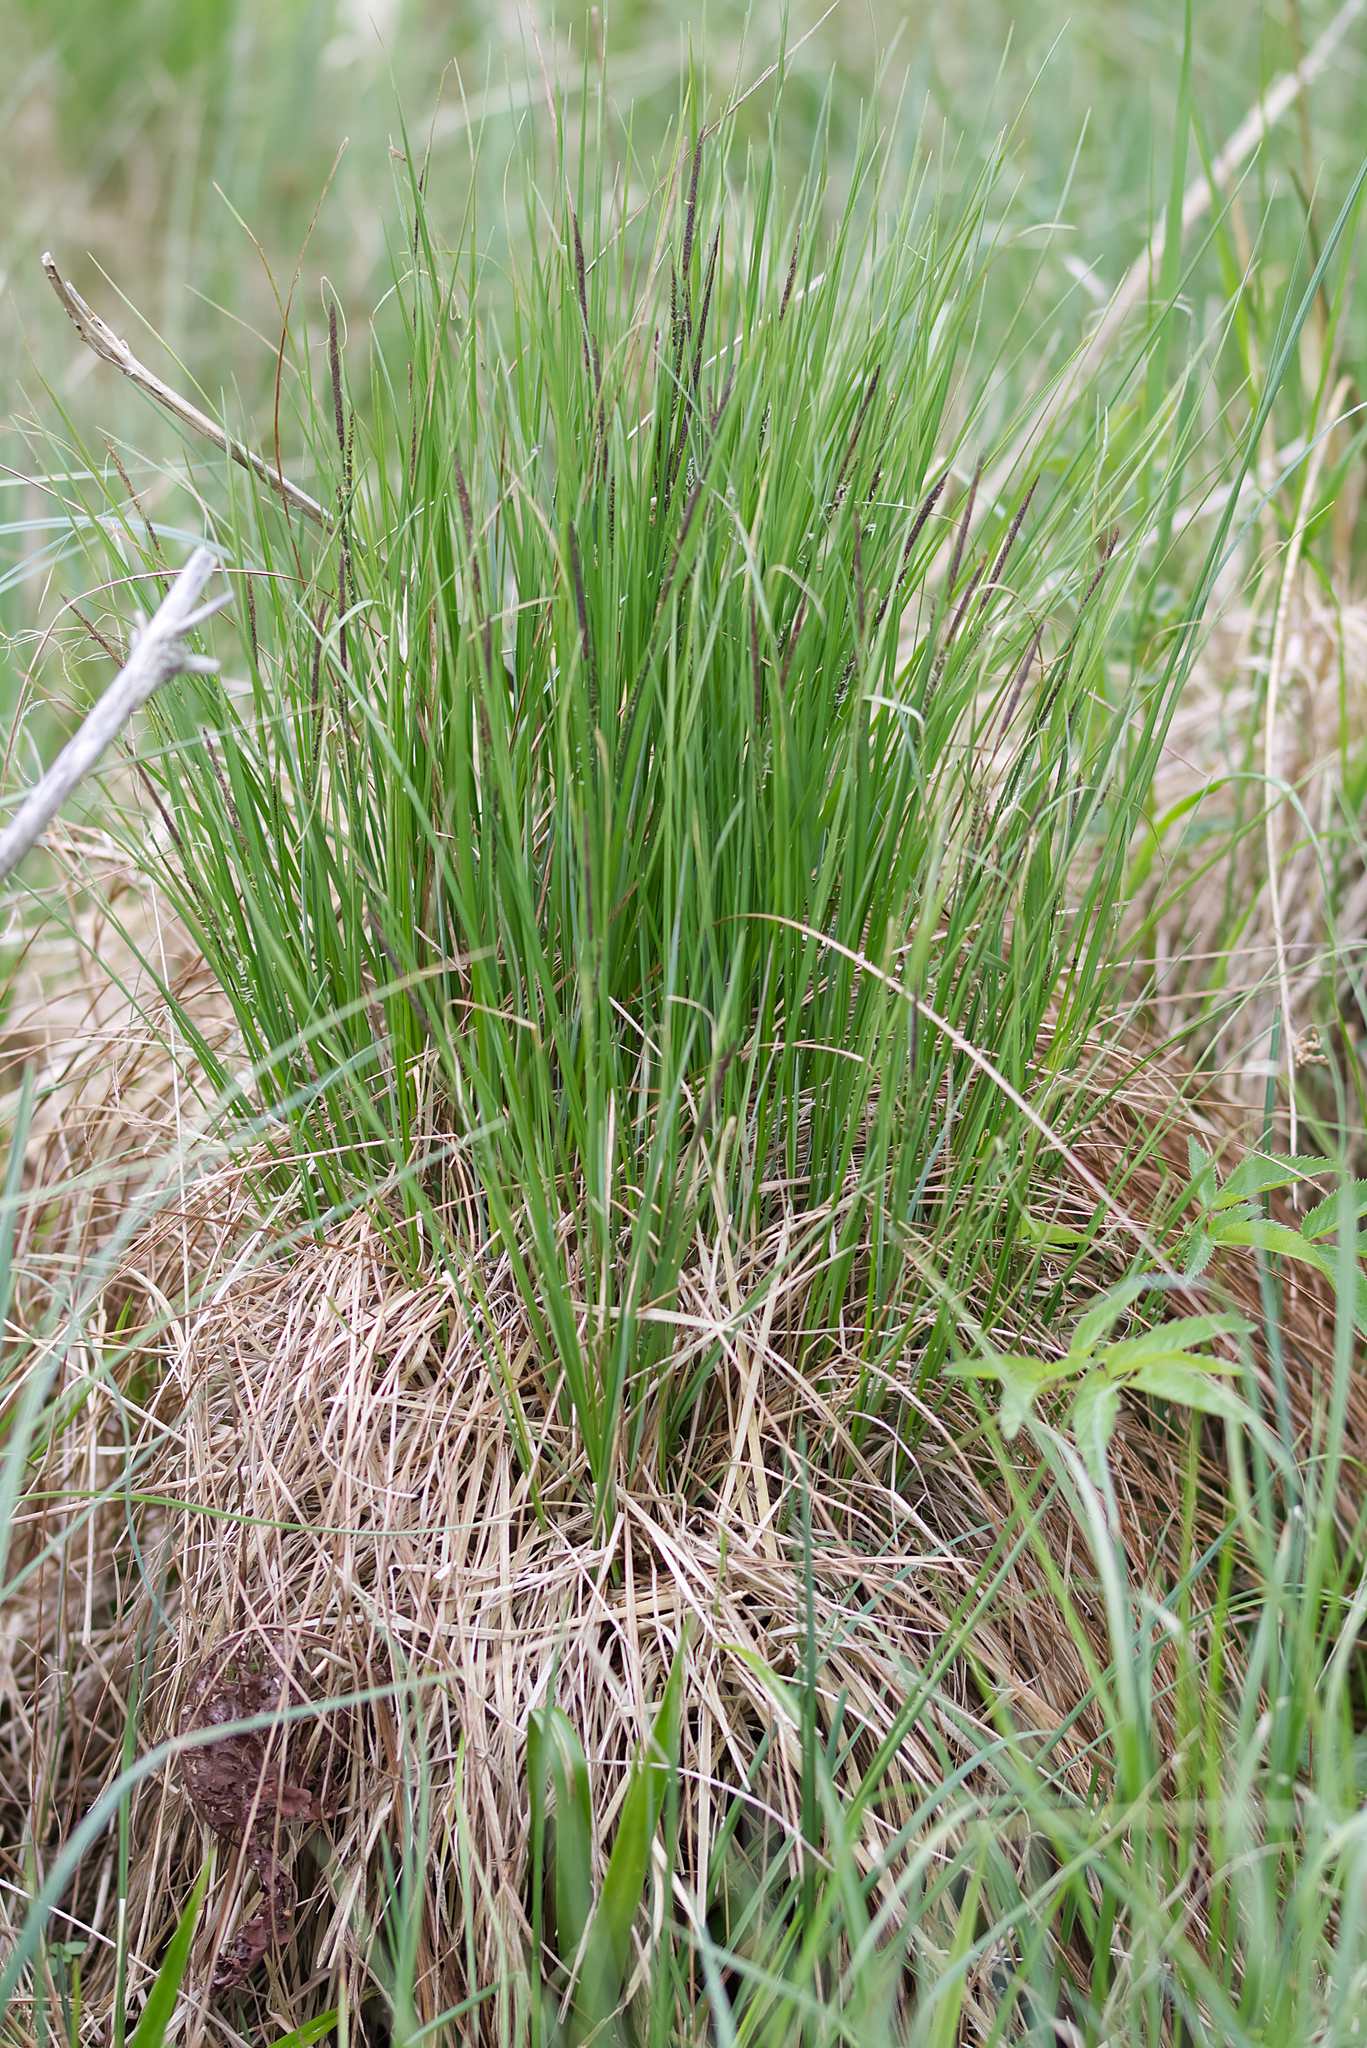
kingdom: Plantae
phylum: Tracheophyta
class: Liliopsida
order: Poales
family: Cyperaceae
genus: Carex
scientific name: Carex elata
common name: Tufted sedge
